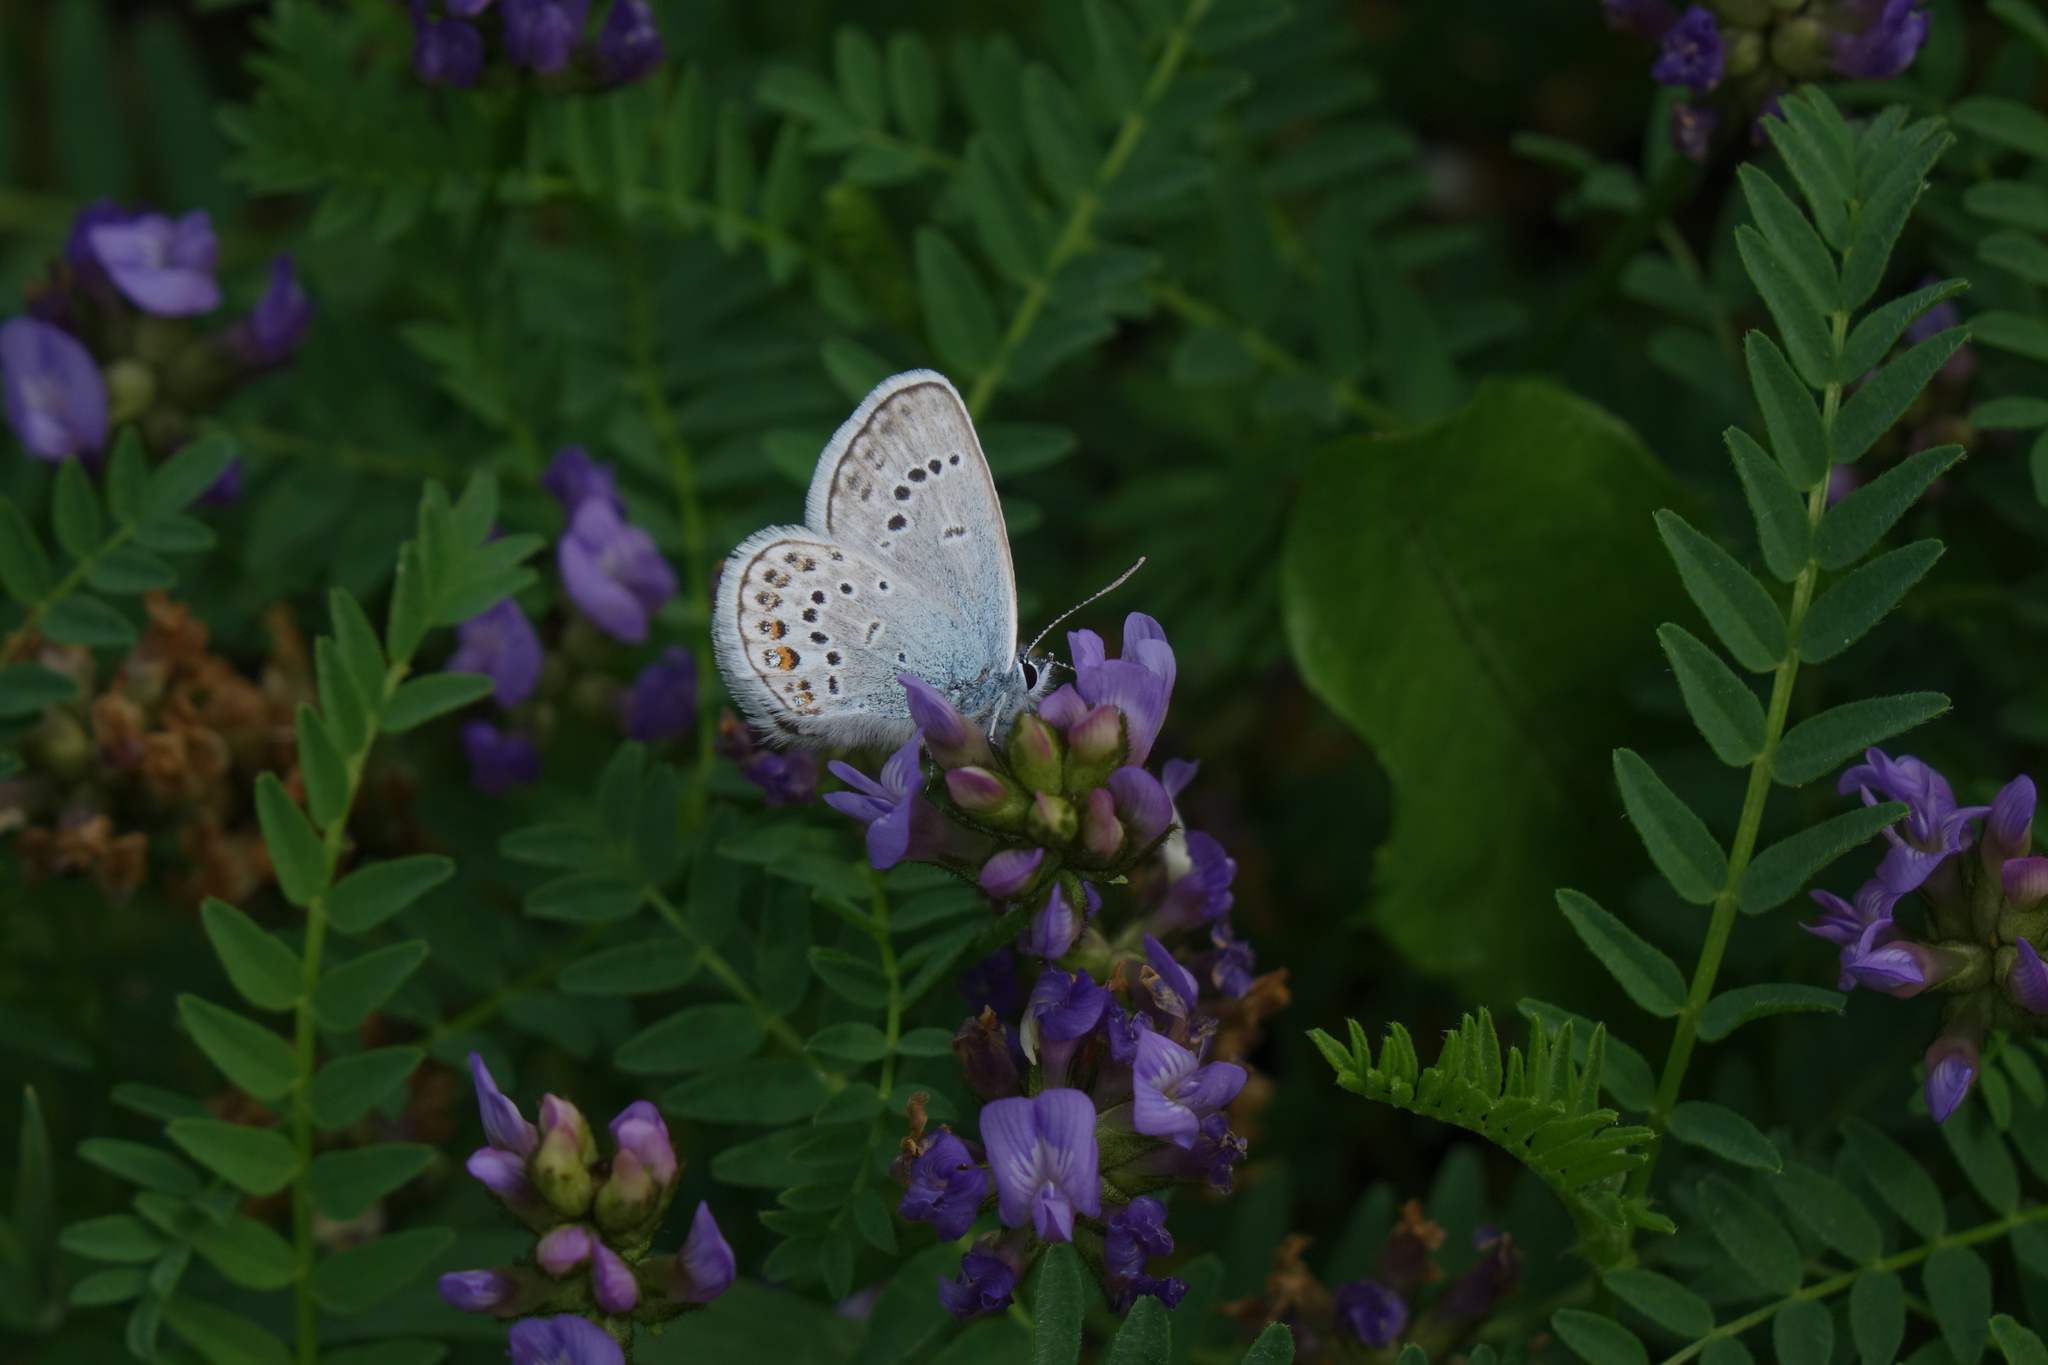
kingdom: Plantae
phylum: Tracheophyta
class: Magnoliopsida
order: Fabales
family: Fabaceae
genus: Astragalus
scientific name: Astragalus danicus
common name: Purple milk-vetch
